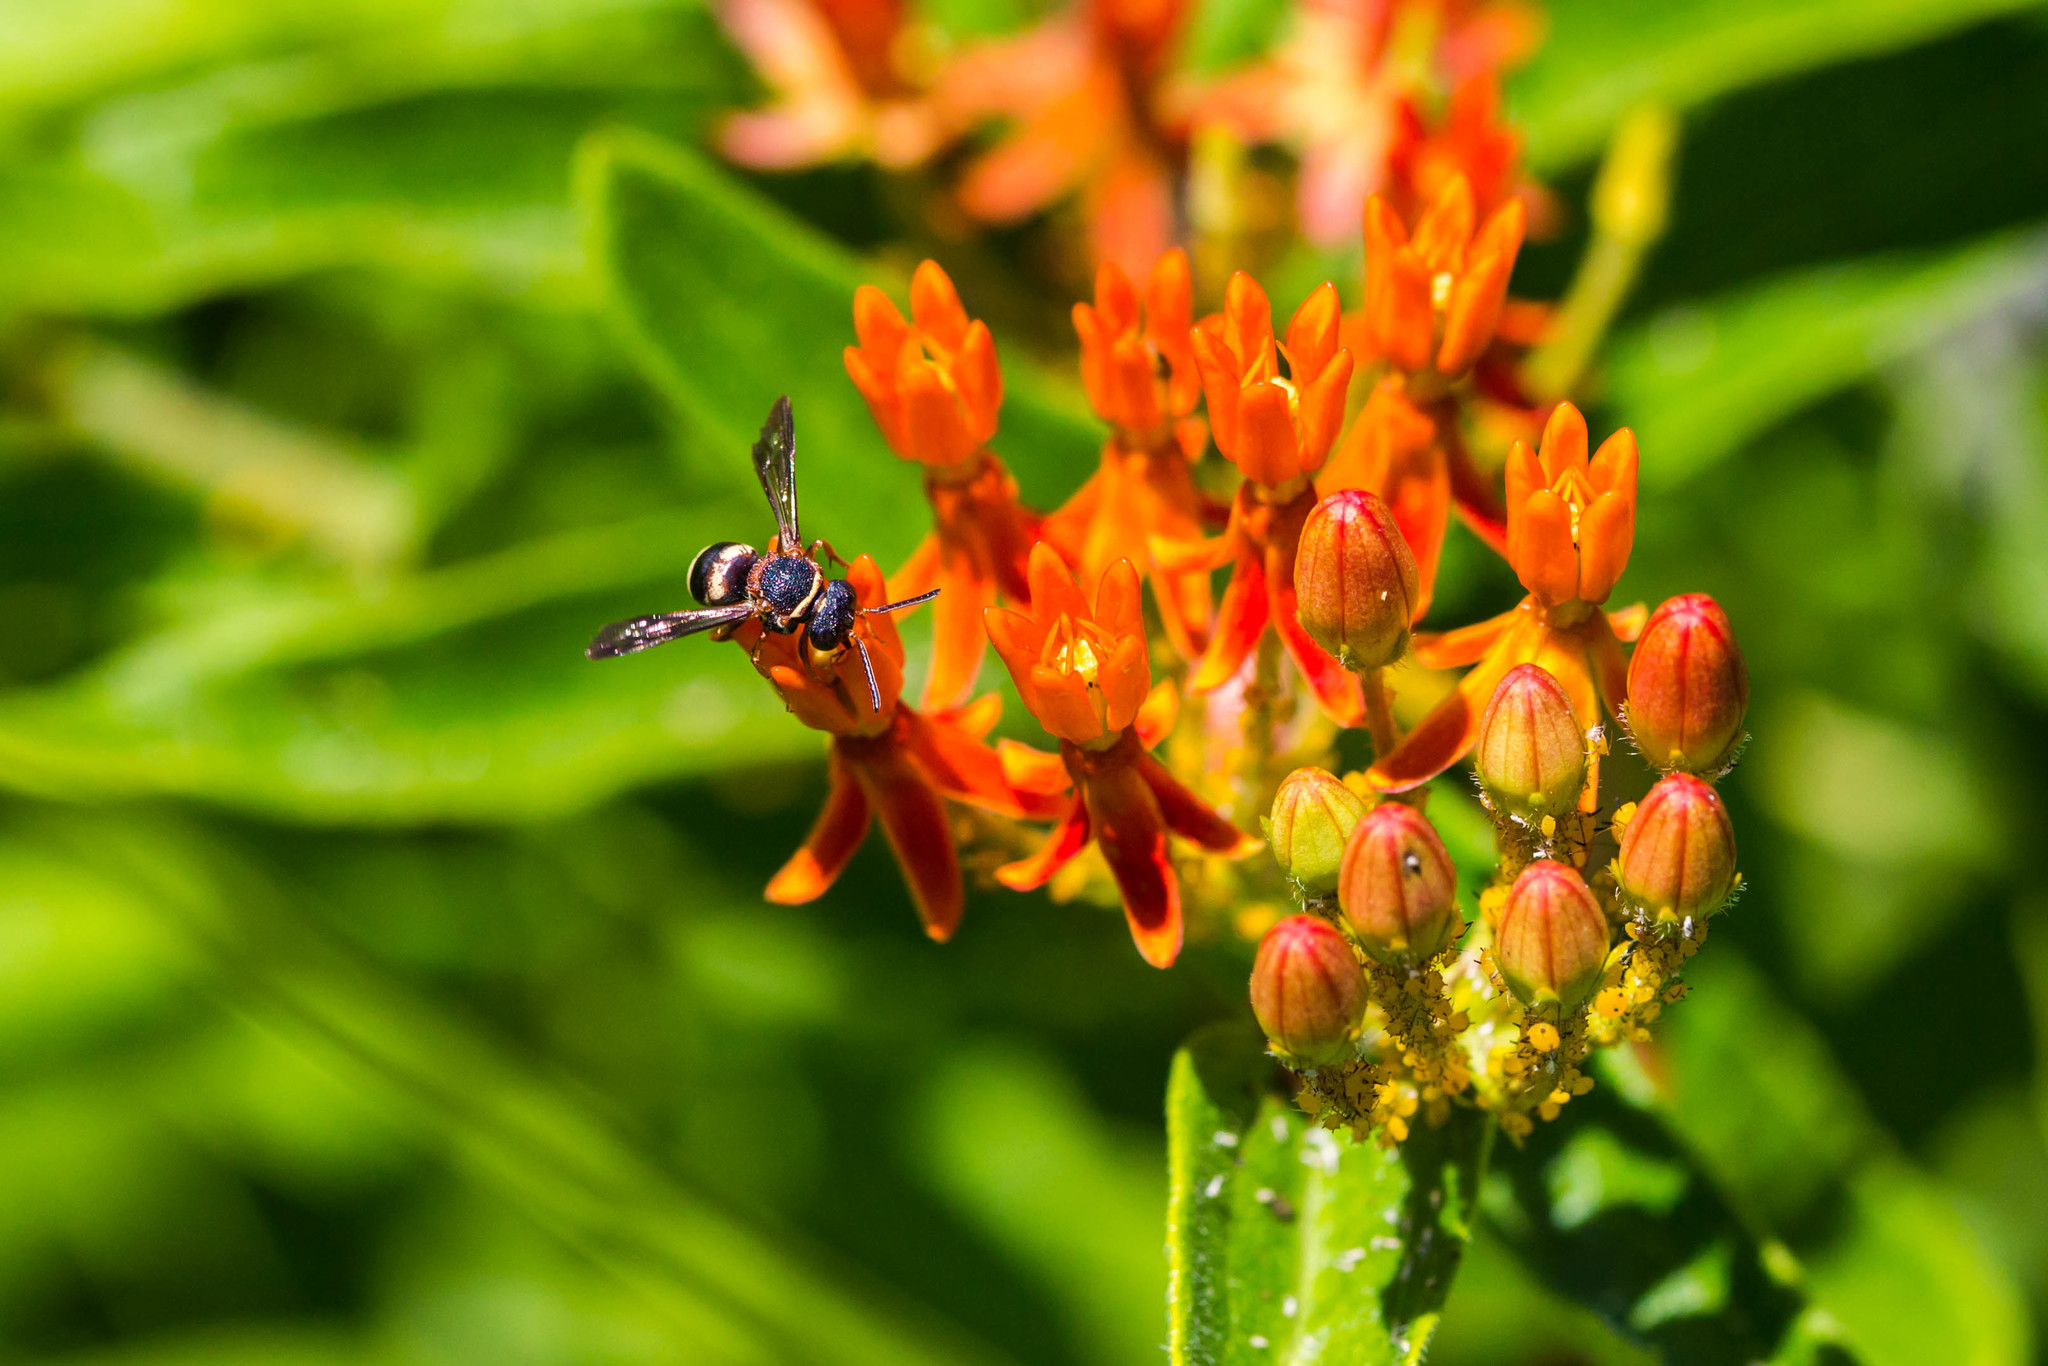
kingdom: Animalia
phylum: Arthropoda
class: Insecta
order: Hymenoptera
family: Apidae
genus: Epeolus
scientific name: Epeolus bifasciatus
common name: Two-banded cellophane-cuckoo
